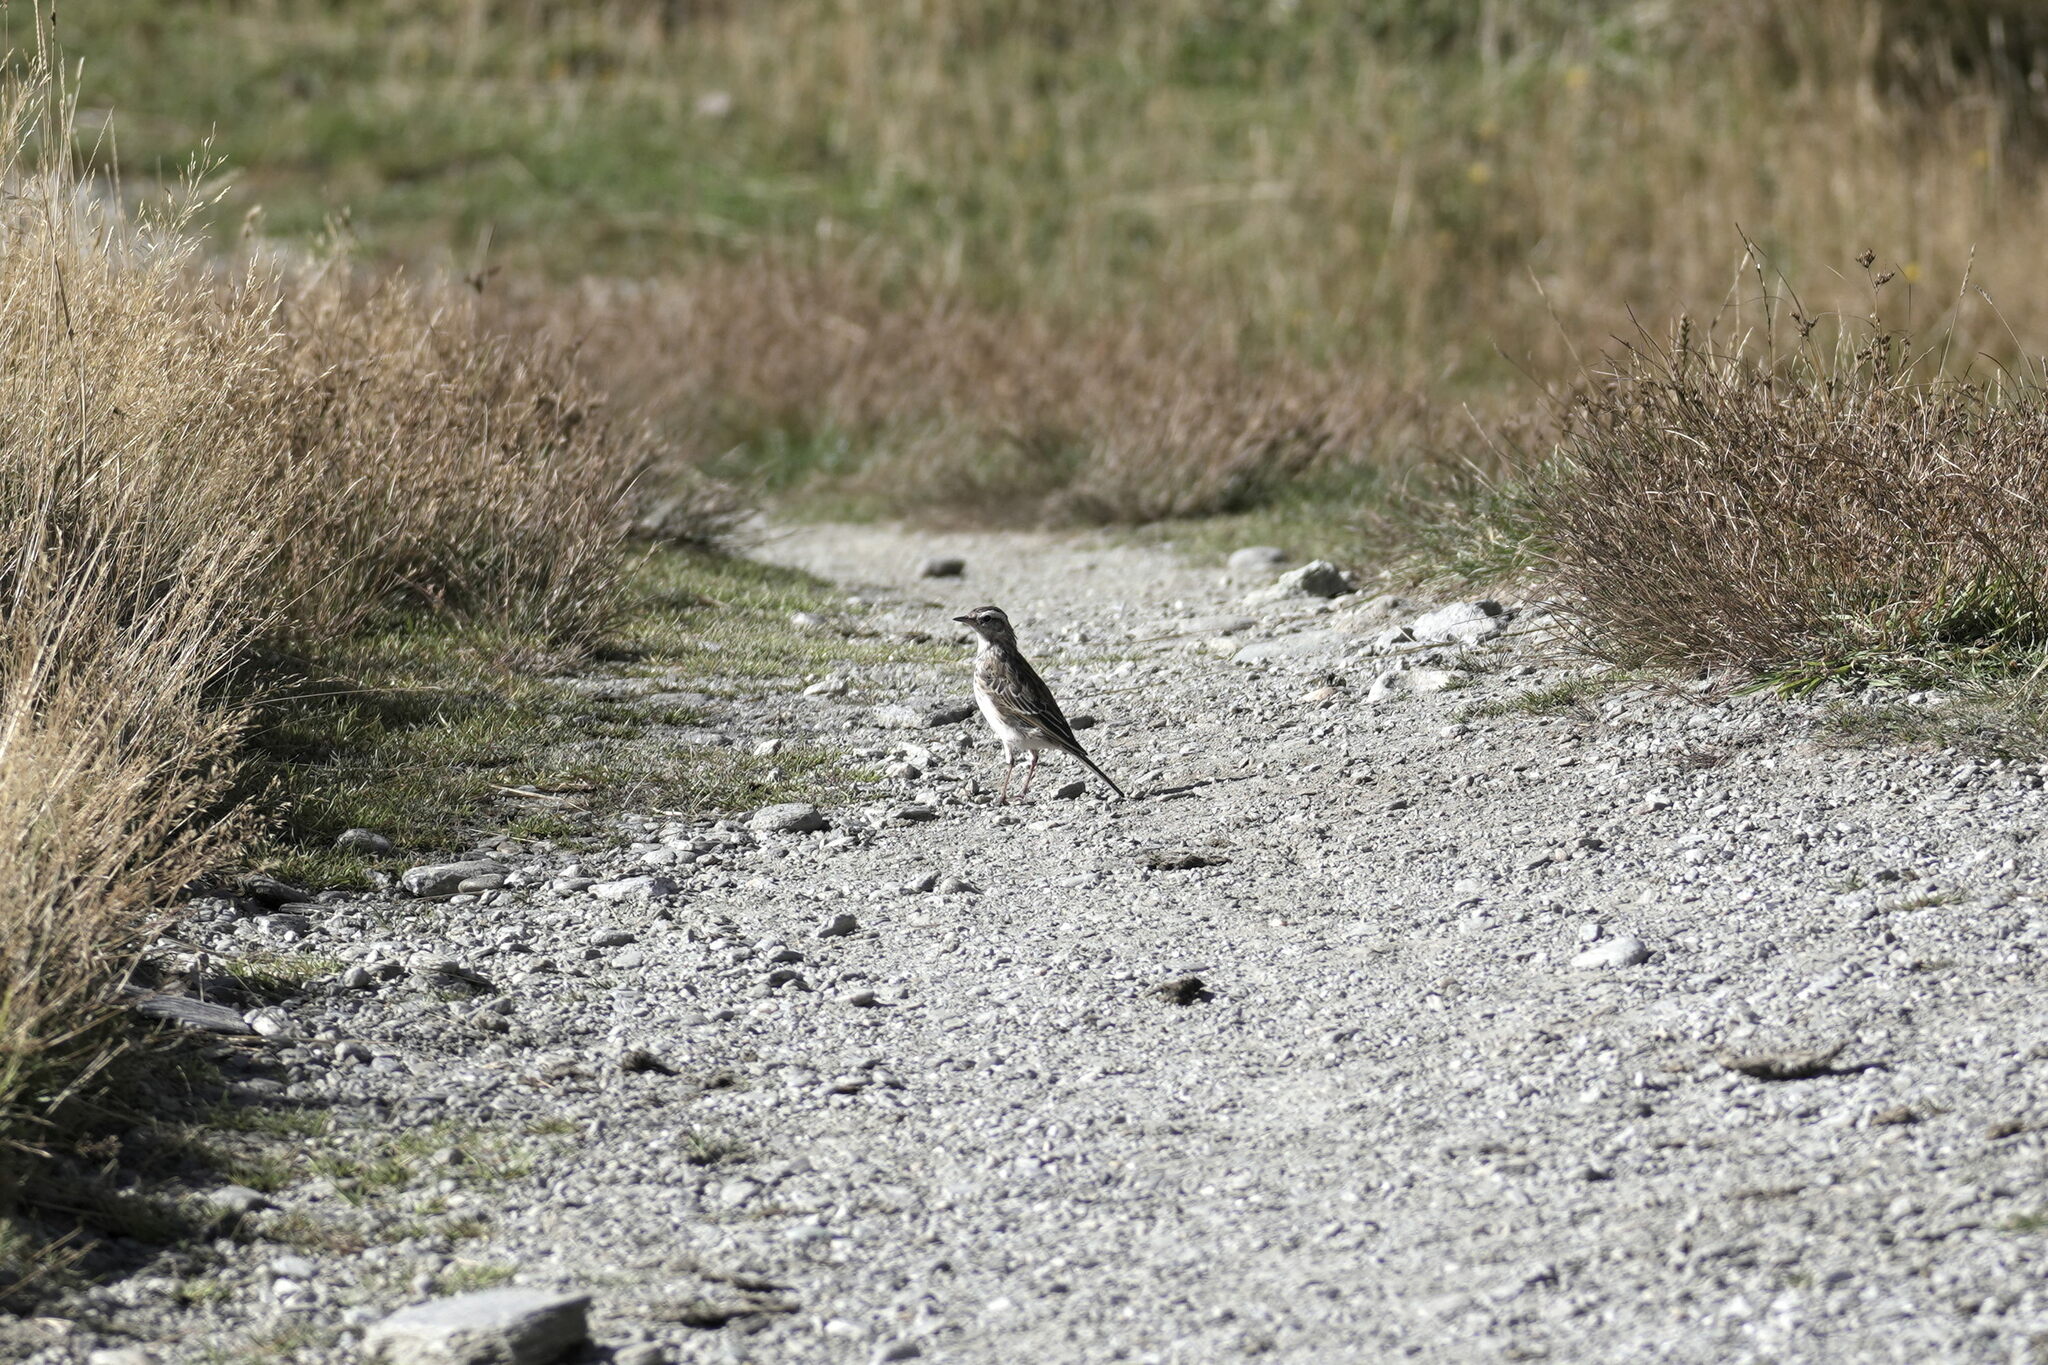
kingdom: Animalia
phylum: Chordata
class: Aves
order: Passeriformes
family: Motacillidae
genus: Anthus
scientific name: Anthus novaeseelandiae
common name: New zealand pipit
